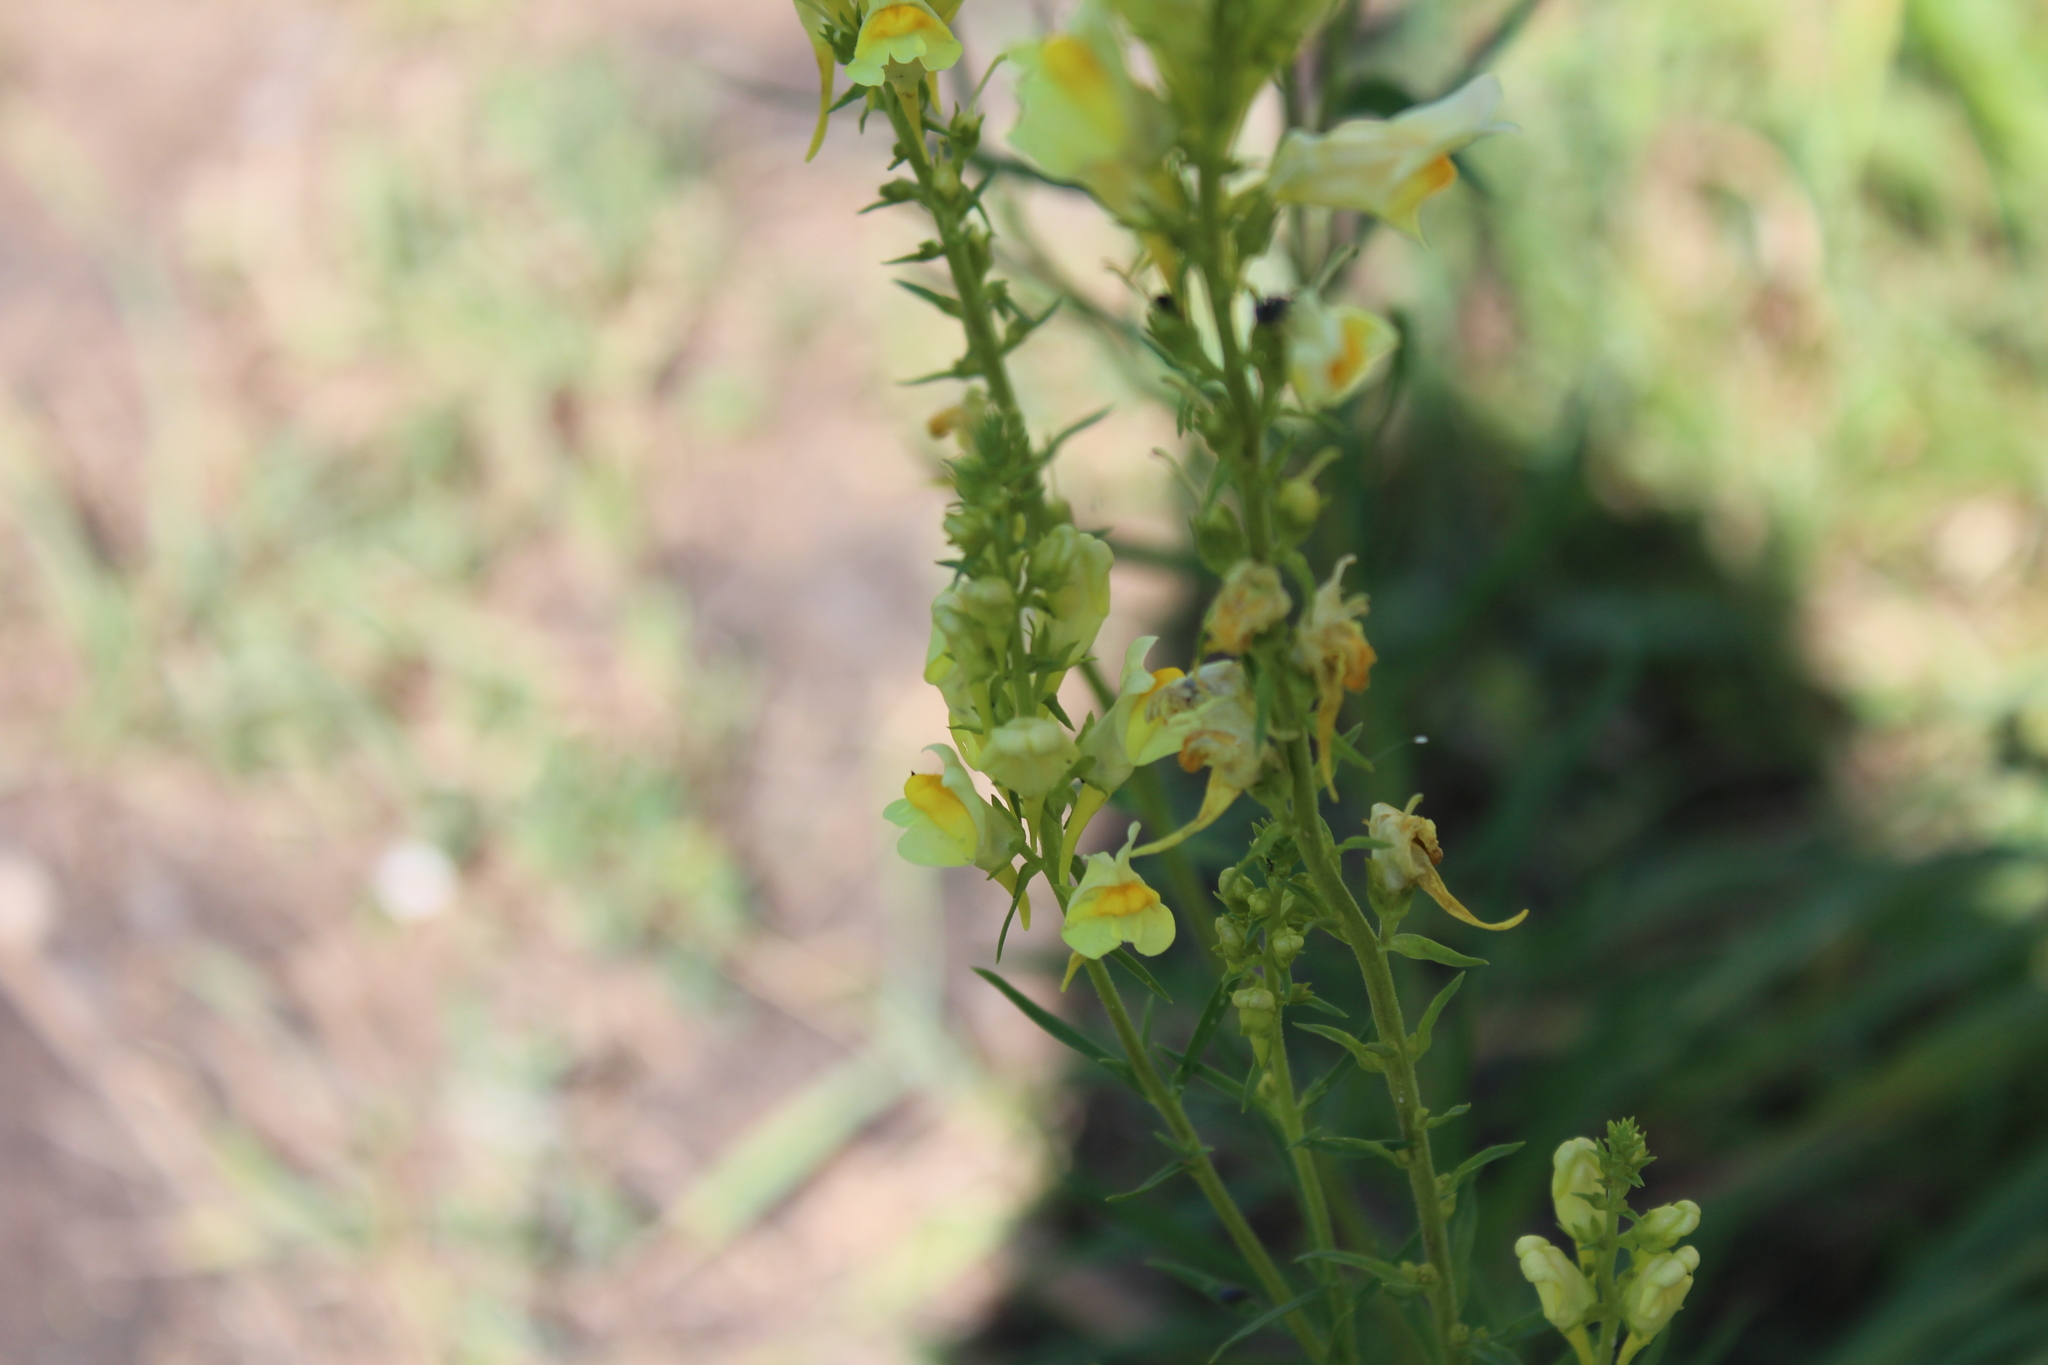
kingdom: Plantae
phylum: Tracheophyta
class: Magnoliopsida
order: Lamiales
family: Plantaginaceae
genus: Linaria
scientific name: Linaria vulgaris
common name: Butter and eggs
